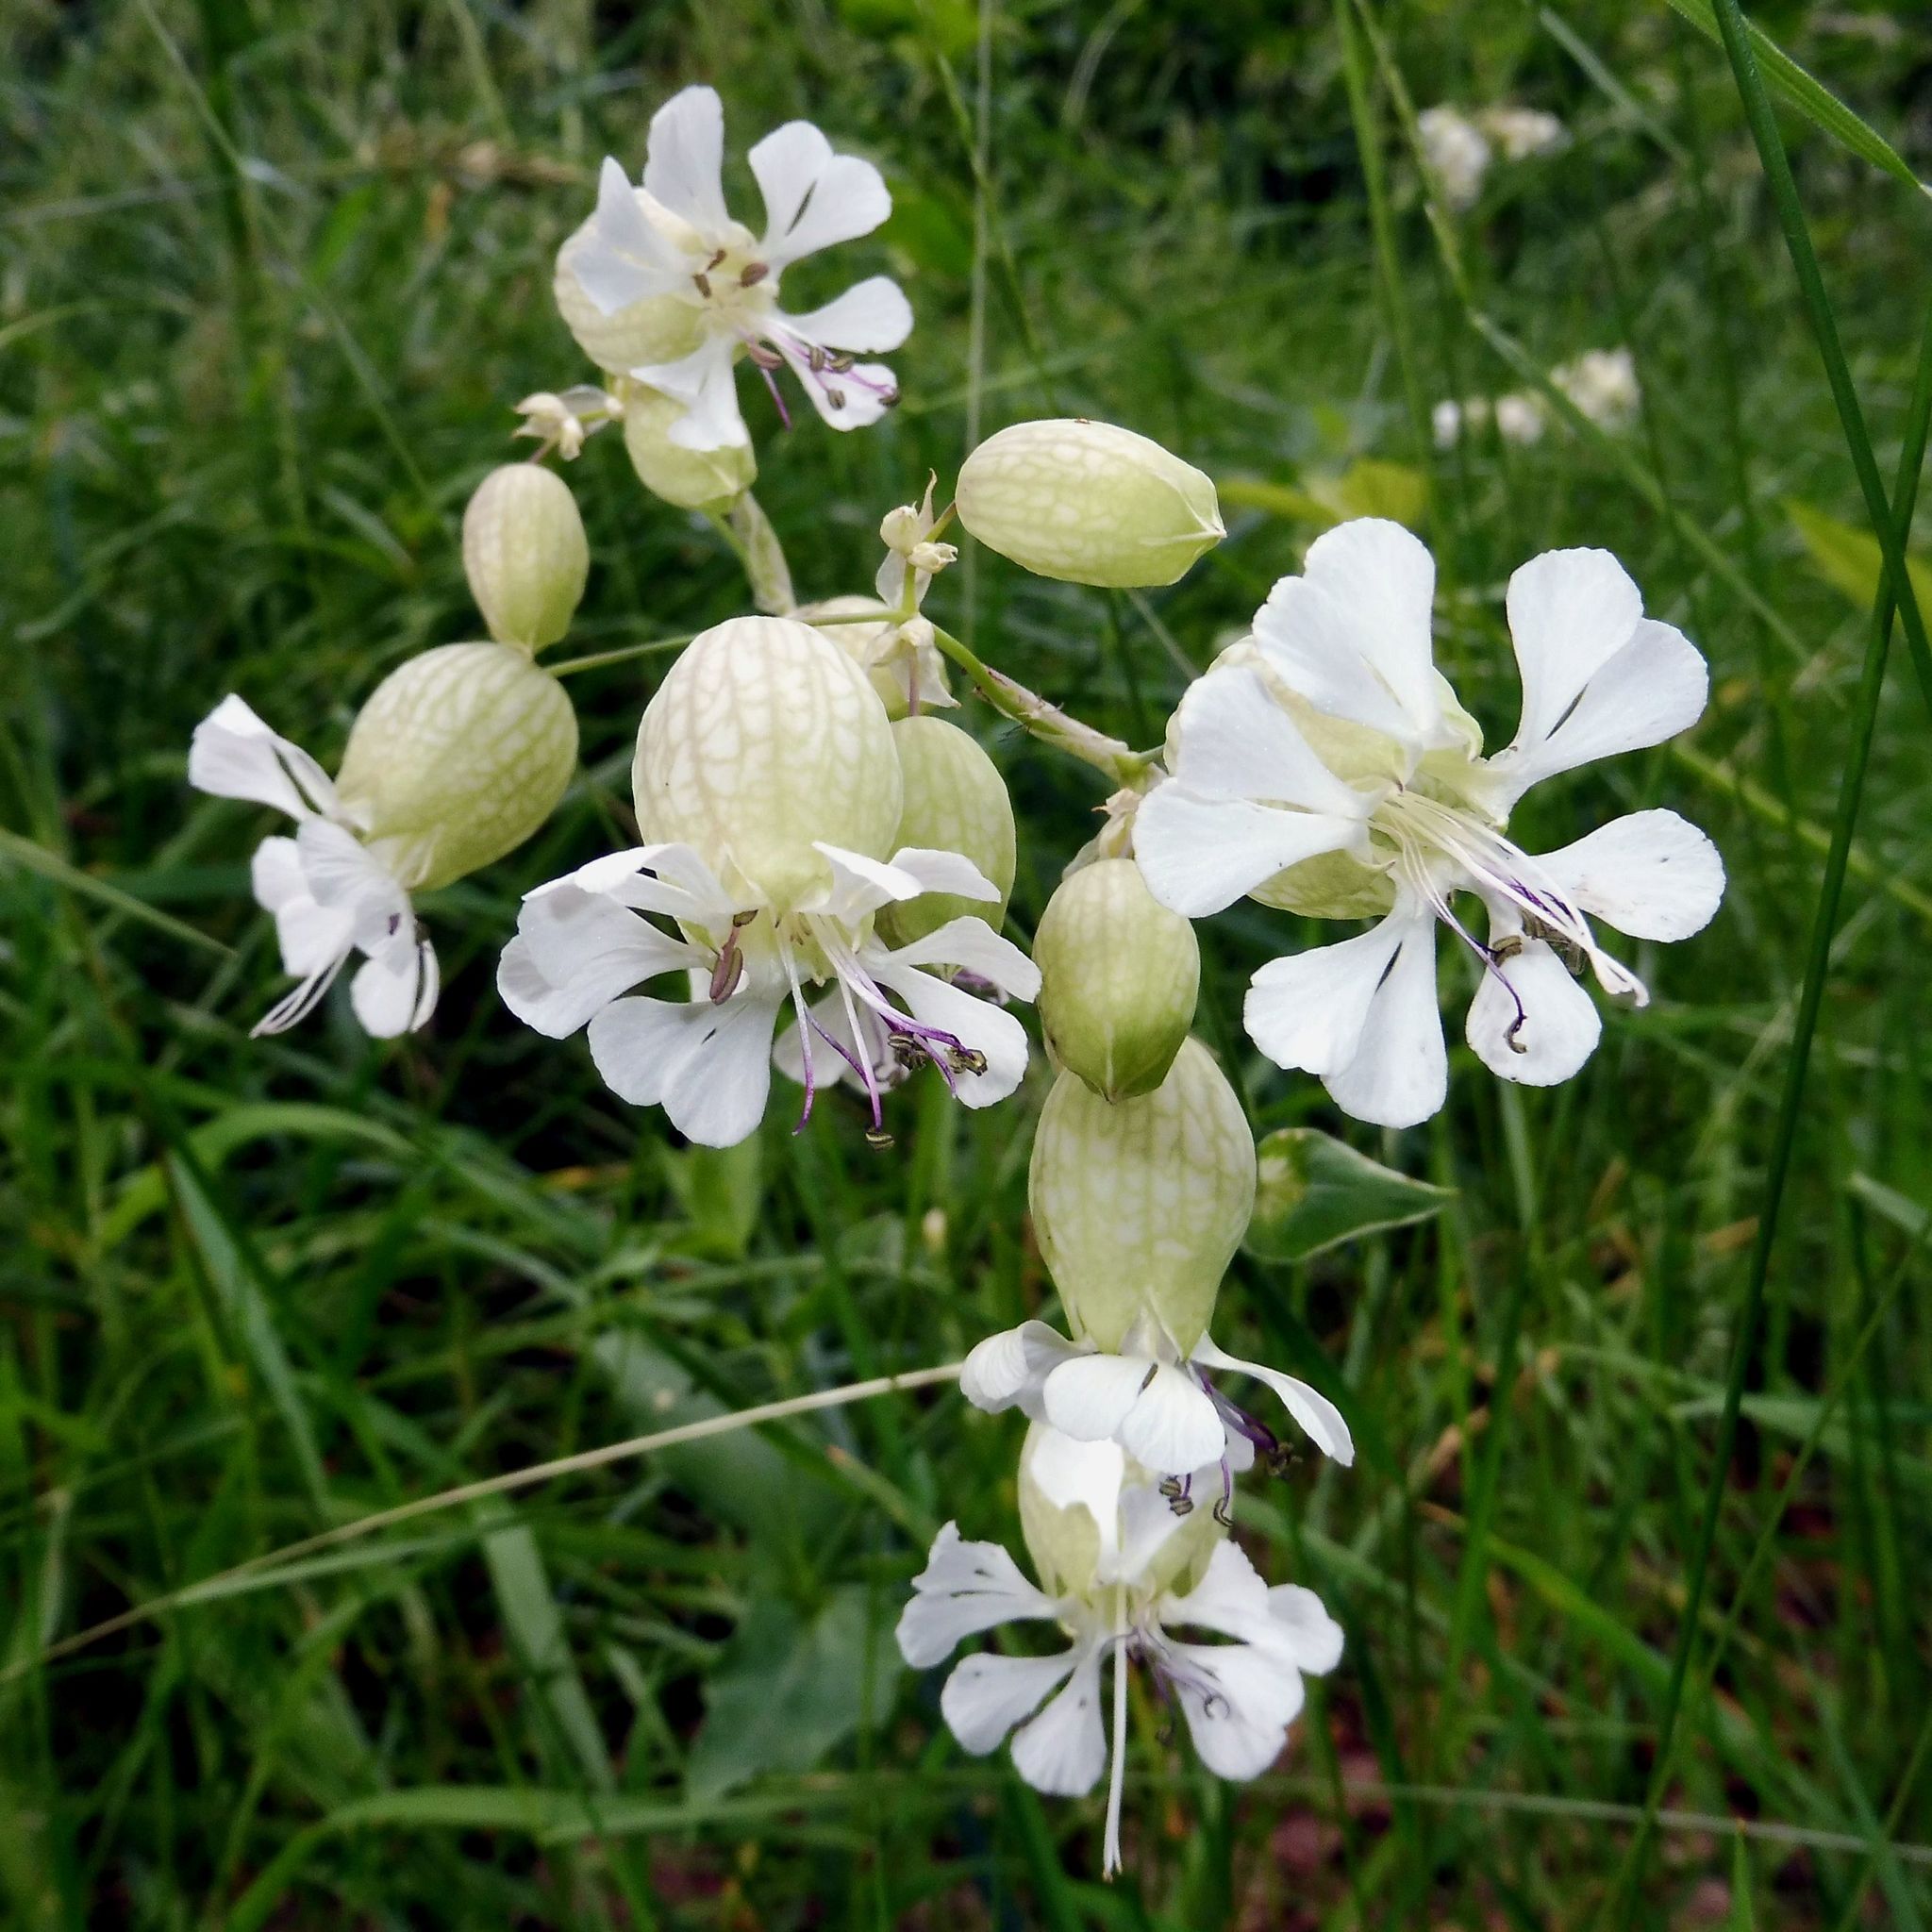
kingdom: Plantae
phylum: Tracheophyta
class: Magnoliopsida
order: Caryophyllales
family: Caryophyllaceae
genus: Silene
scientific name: Silene vulgaris
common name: Bladder campion
